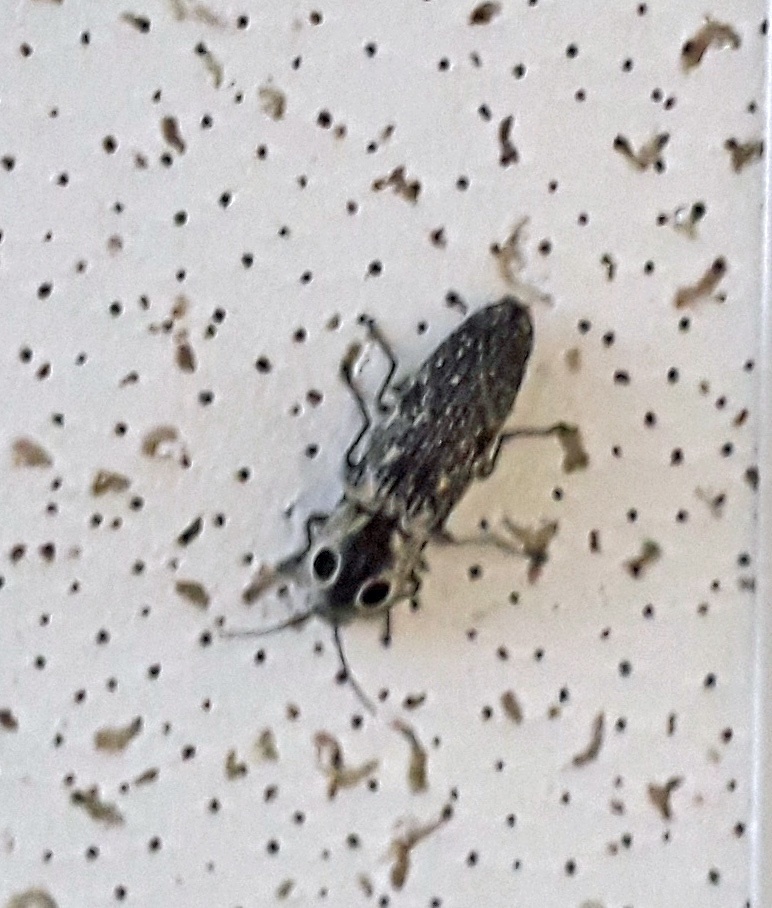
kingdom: Animalia
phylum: Arthropoda
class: Insecta
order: Coleoptera
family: Elateridae
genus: Alaus
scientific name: Alaus oculatus
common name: Eastern eyed click beetle
